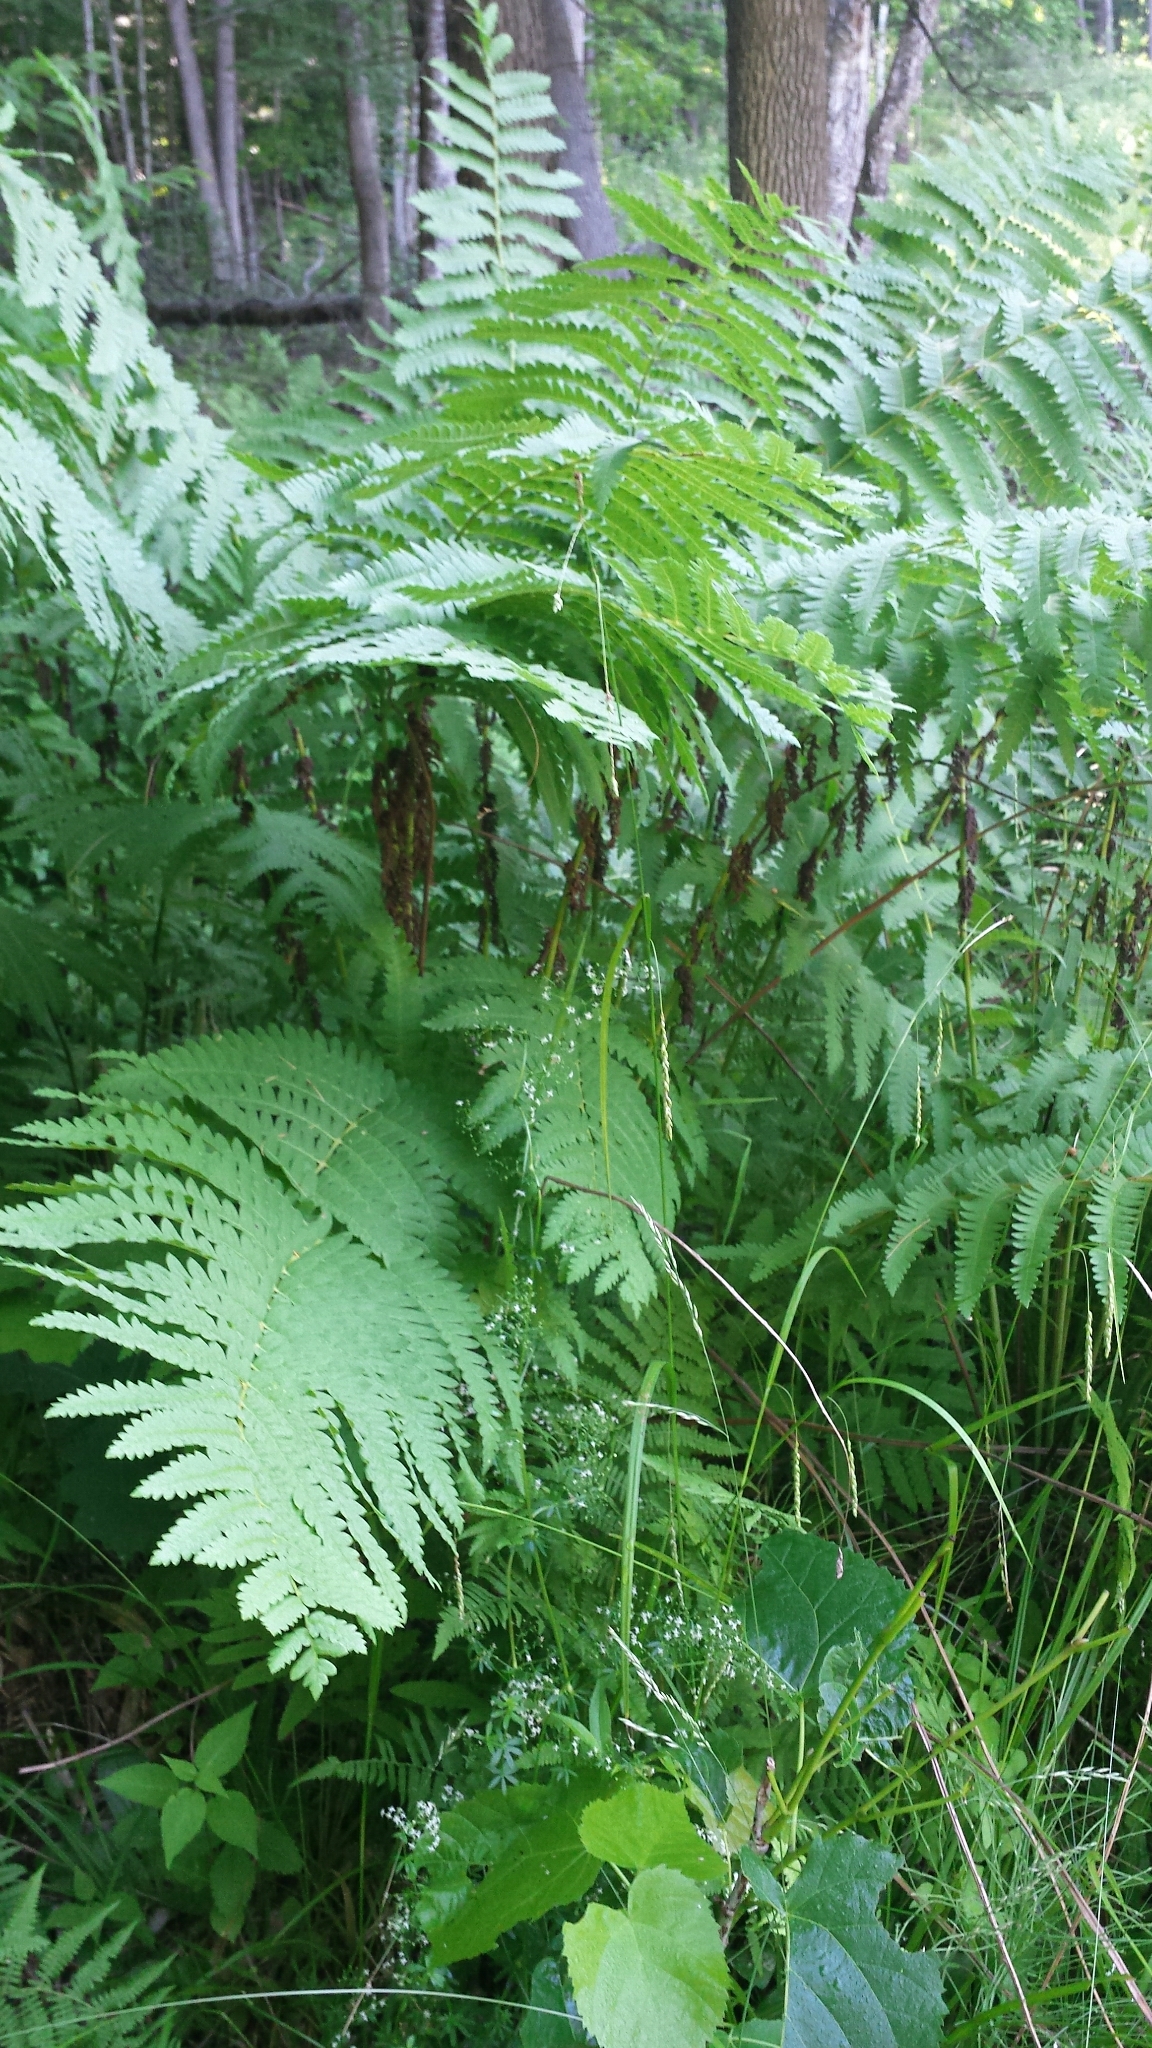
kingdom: Plantae
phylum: Tracheophyta
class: Polypodiopsida
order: Osmundales
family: Osmundaceae
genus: Claytosmunda
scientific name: Claytosmunda claytoniana
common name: Clayton's fern
